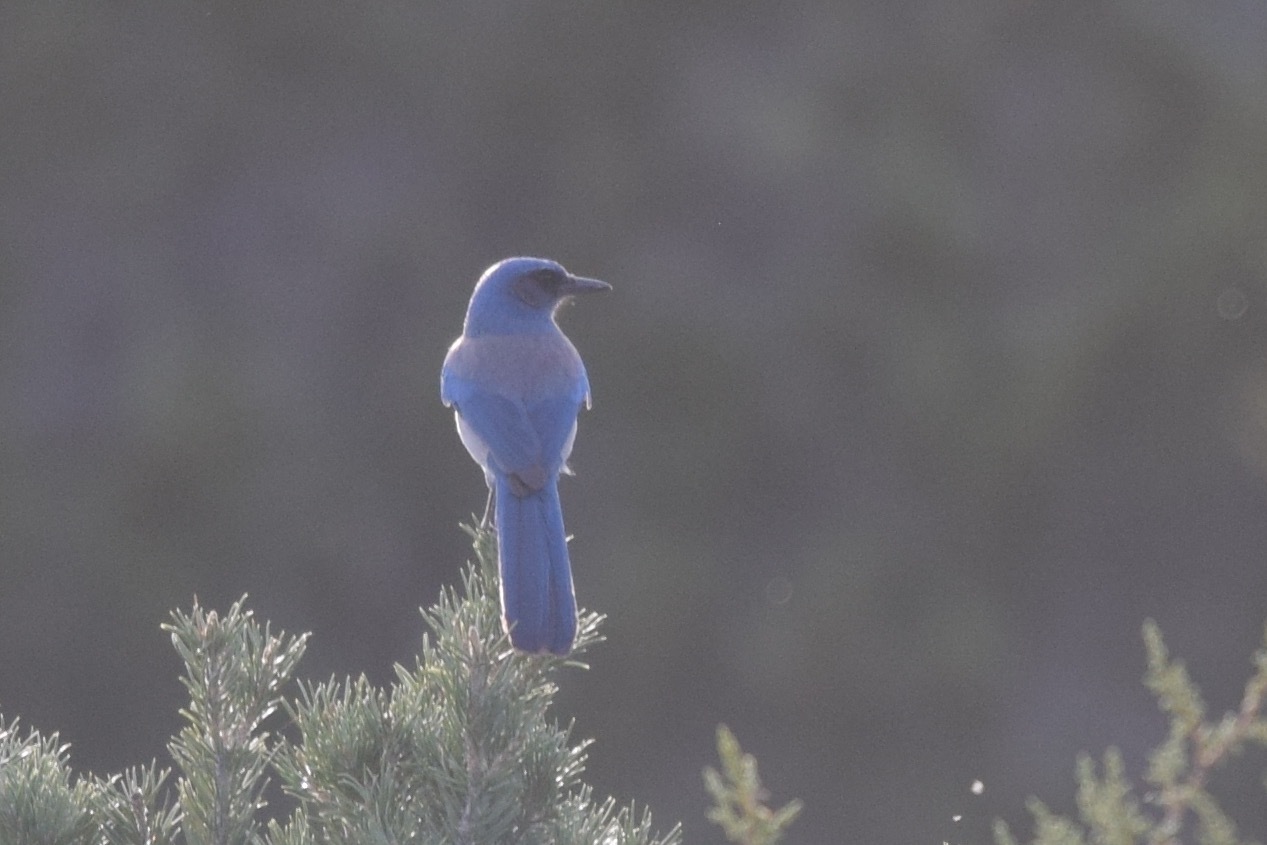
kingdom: Animalia
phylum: Chordata
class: Aves
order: Passeriformes
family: Corvidae
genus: Aphelocoma
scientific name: Aphelocoma californica
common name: California scrub-jay
